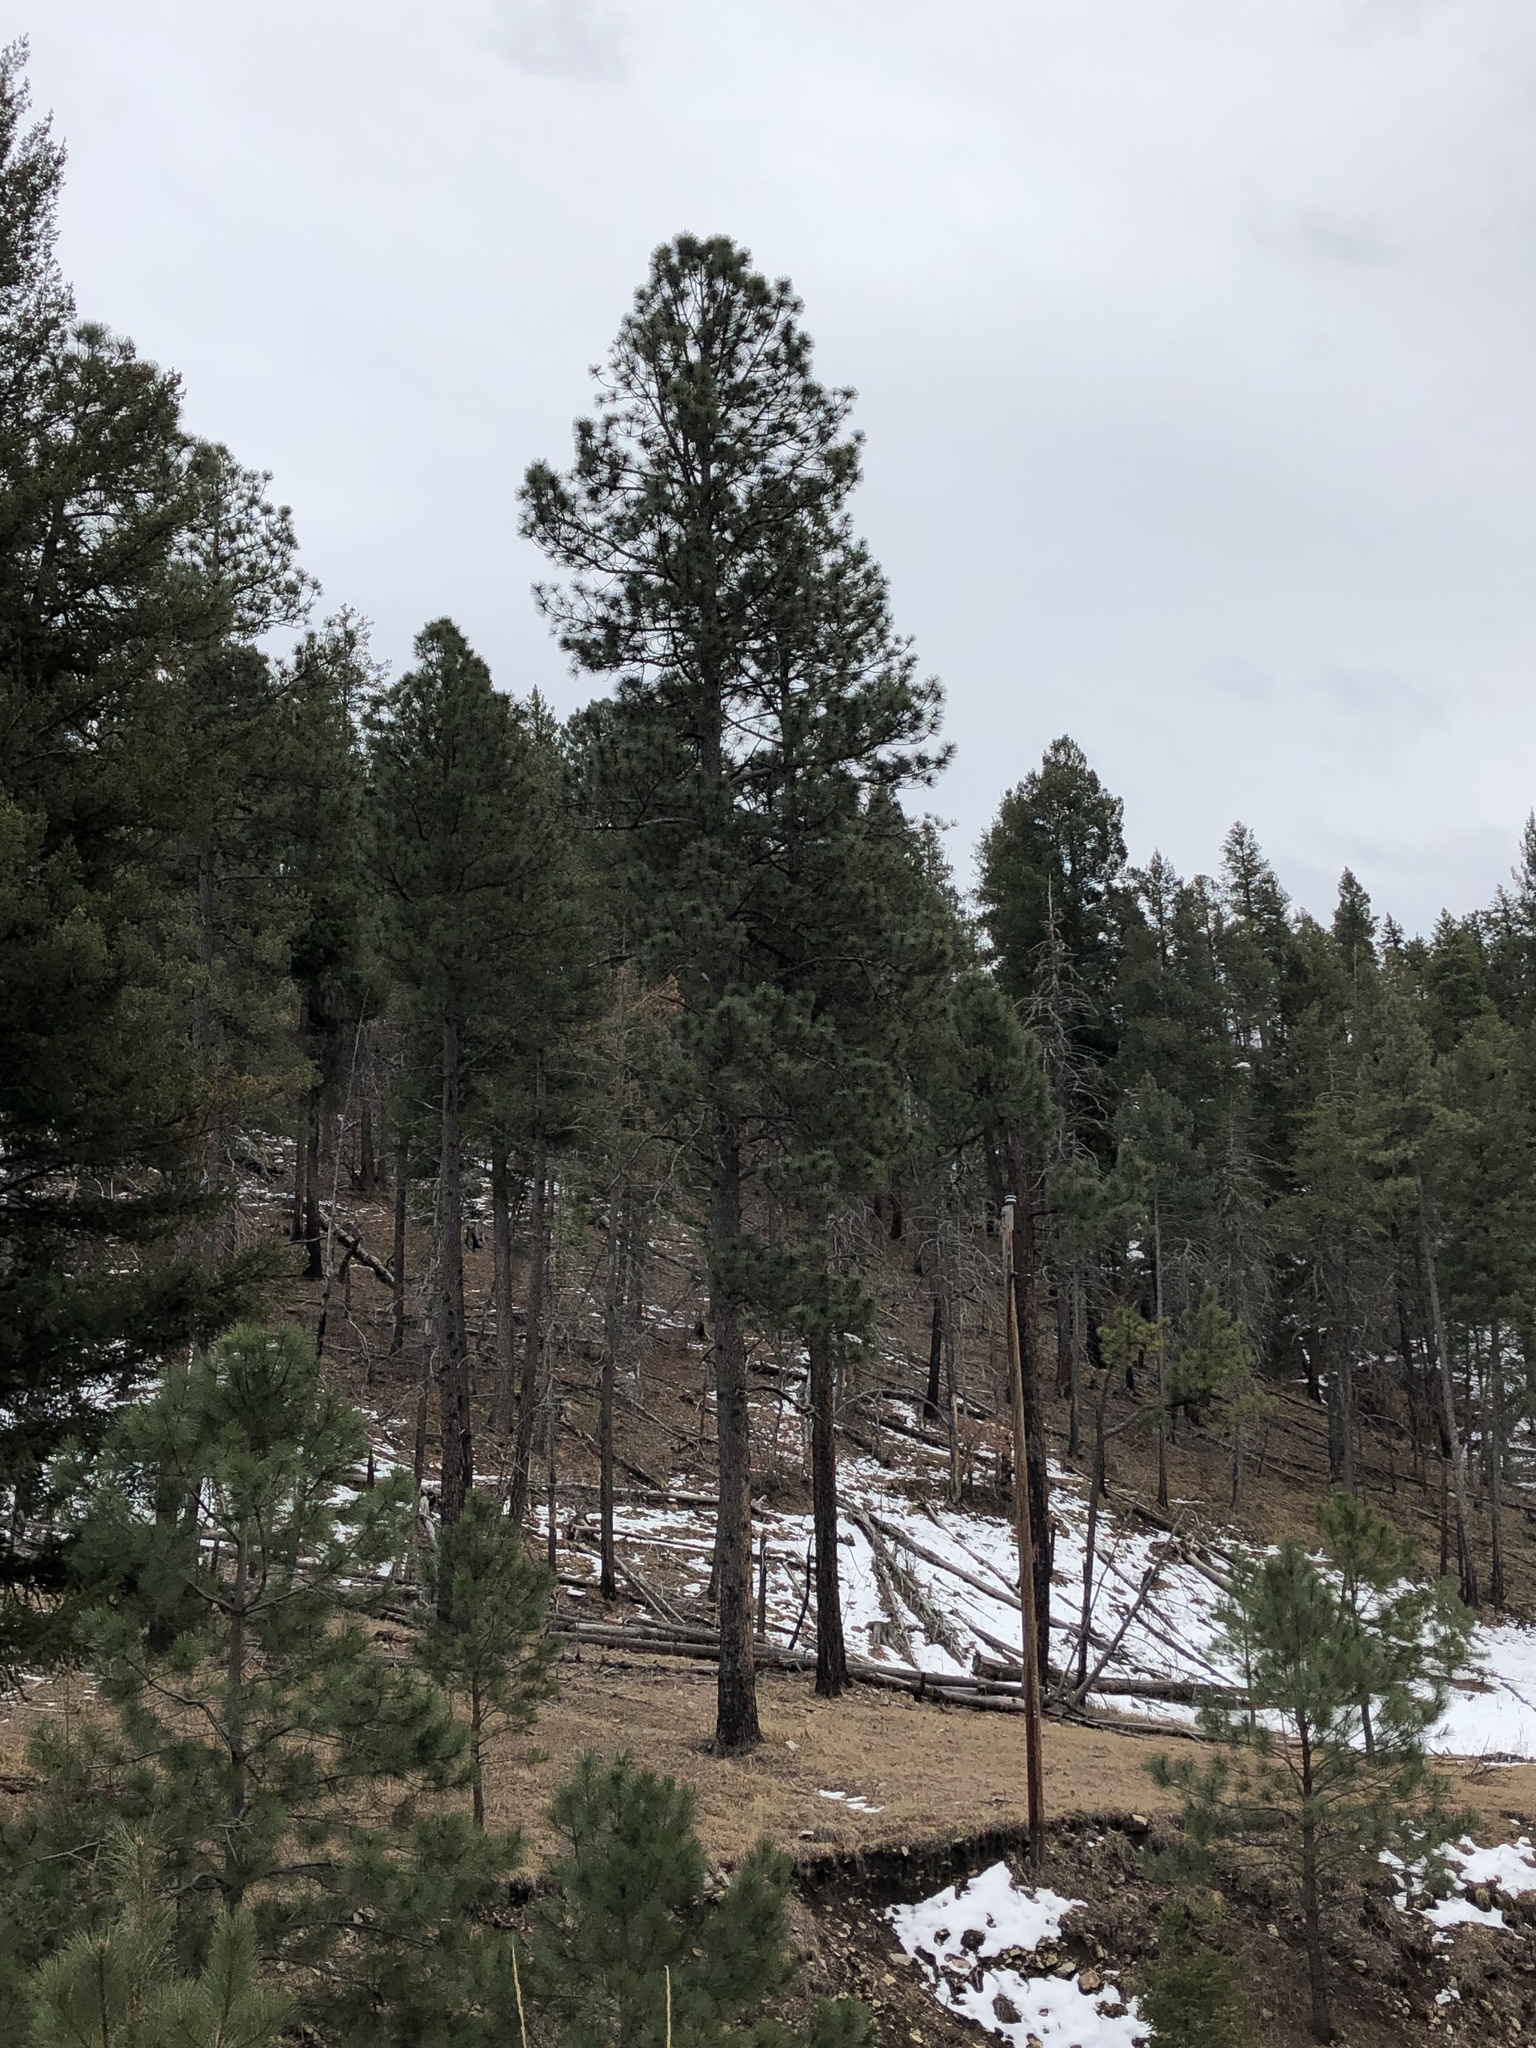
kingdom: Plantae
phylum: Tracheophyta
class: Pinopsida
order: Pinales
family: Pinaceae
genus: Pinus
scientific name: Pinus ponderosa
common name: Western yellow-pine
